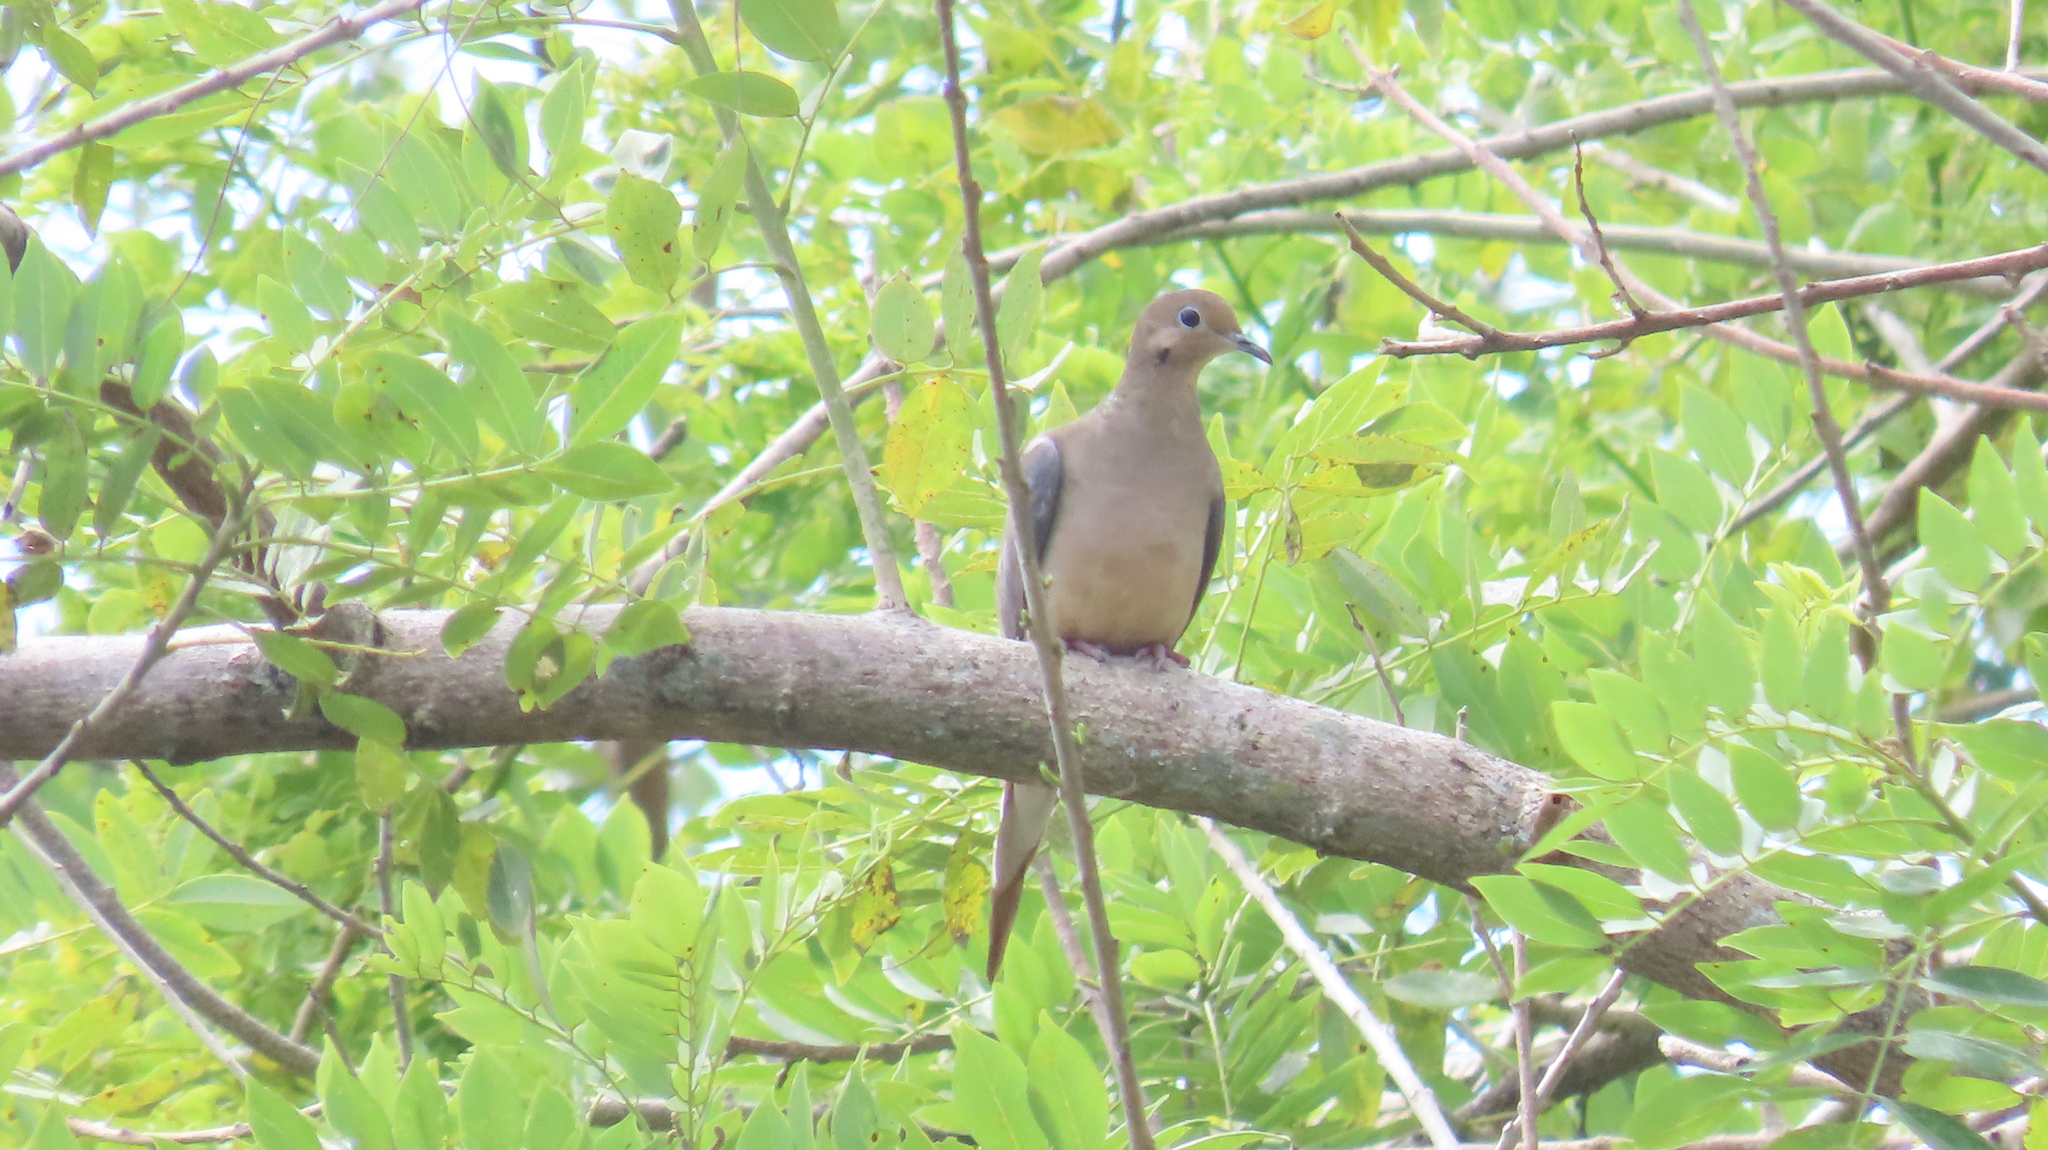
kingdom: Animalia
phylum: Chordata
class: Aves
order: Columbiformes
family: Columbidae
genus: Zenaida
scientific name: Zenaida macroura
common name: Mourning dove
